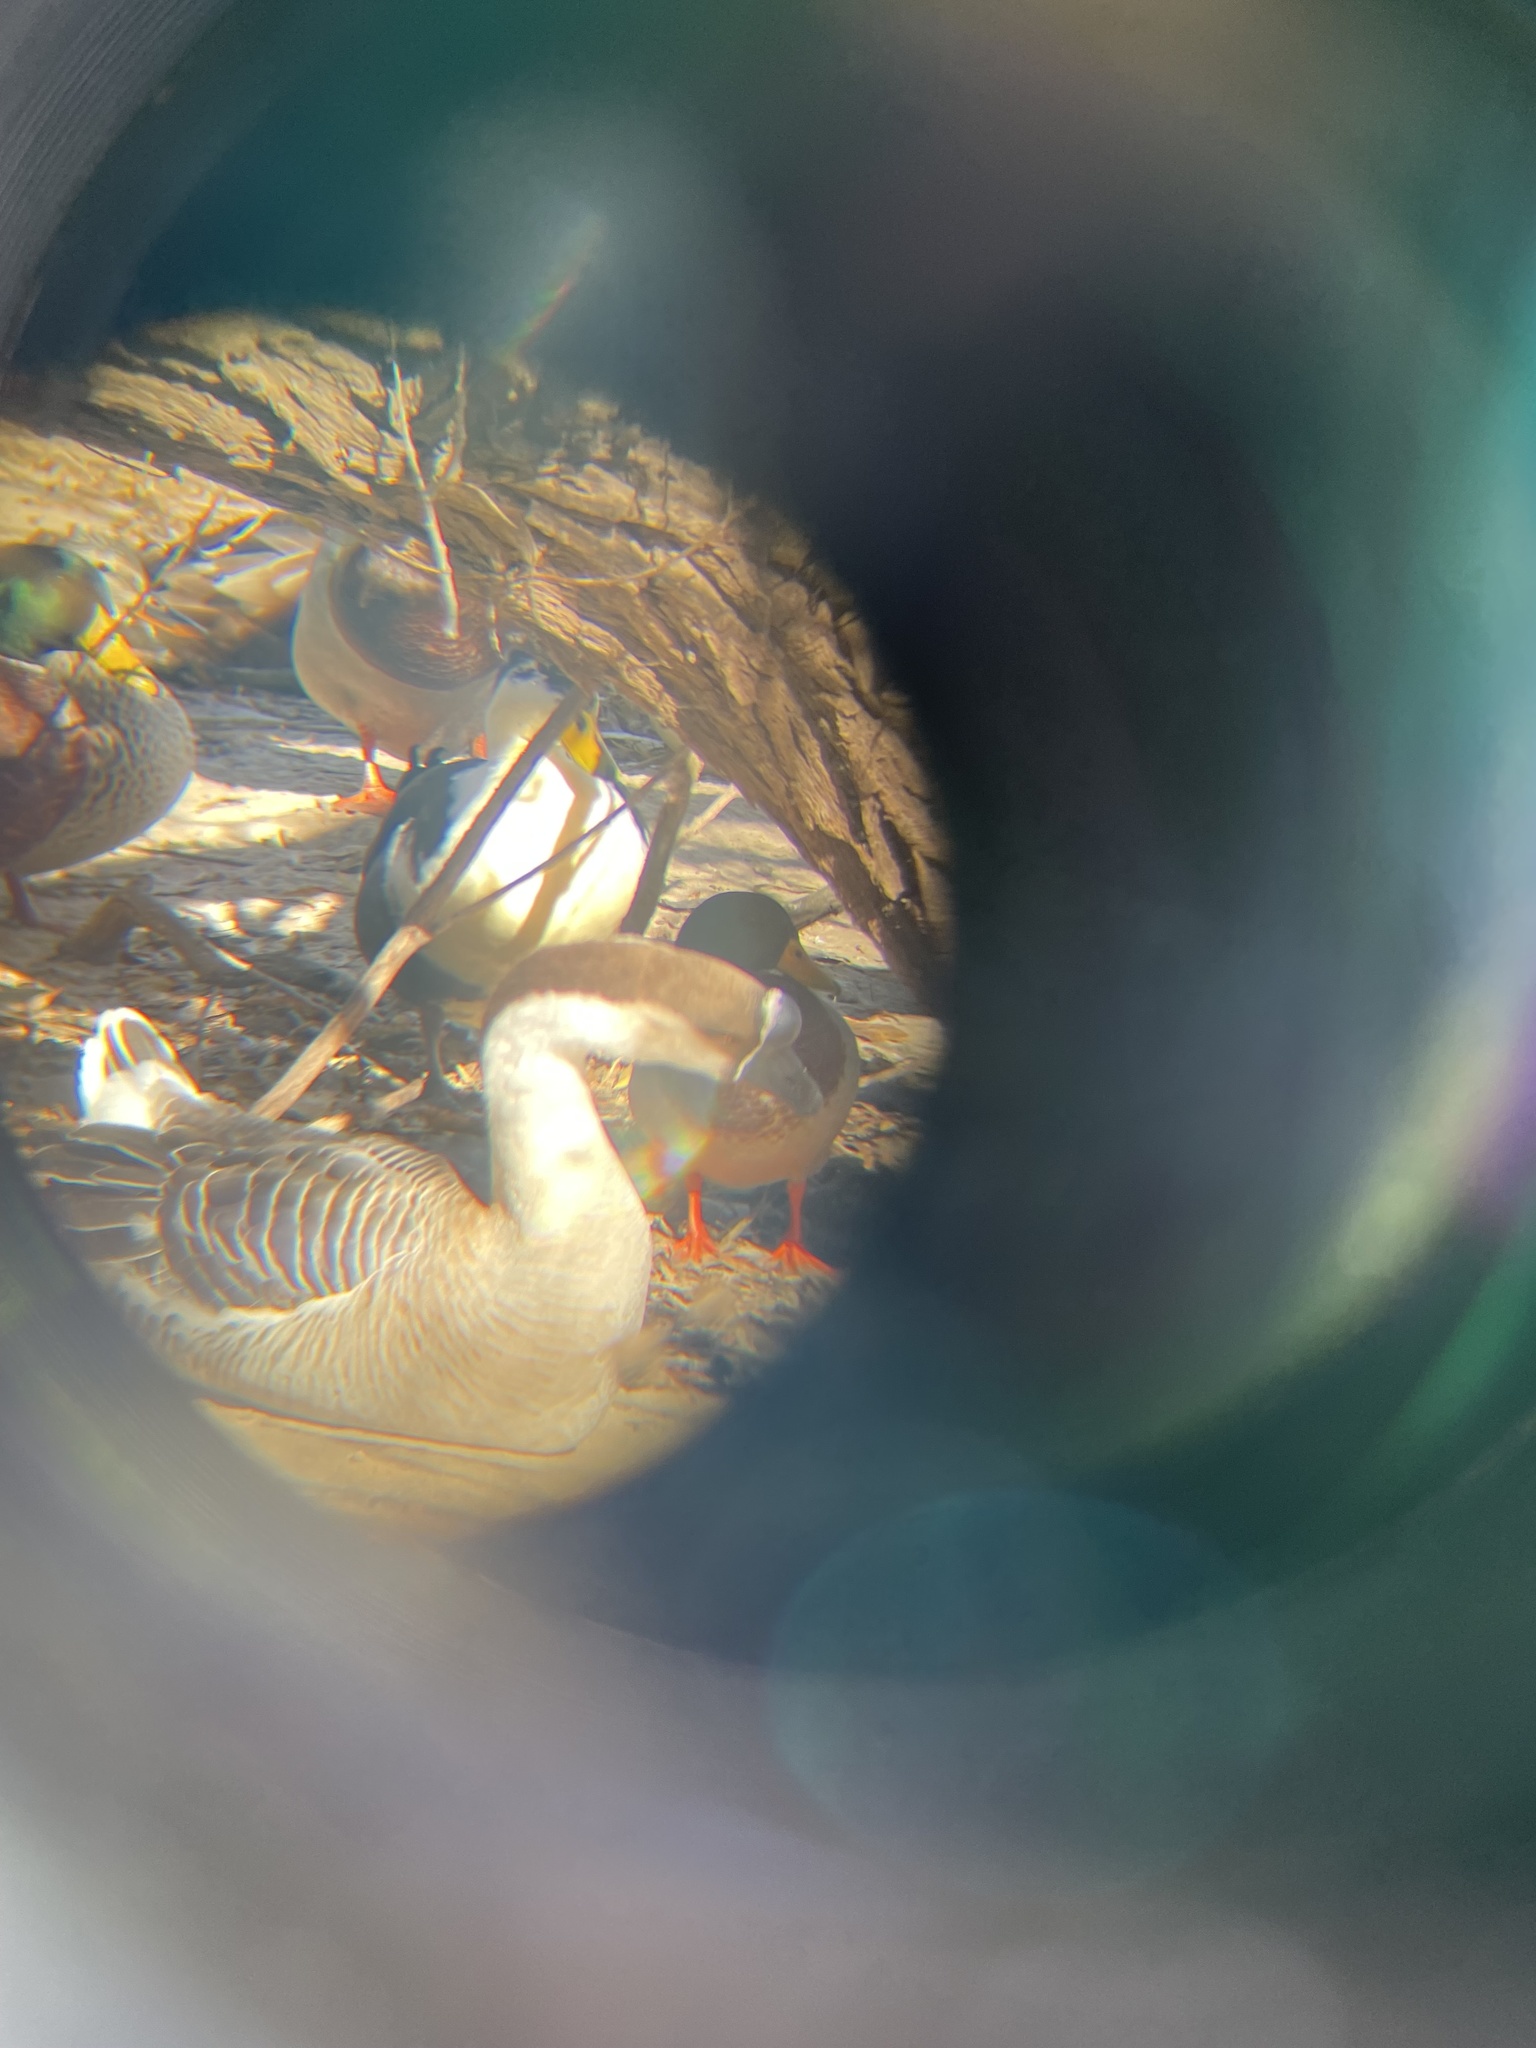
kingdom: Animalia
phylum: Chordata
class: Aves
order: Anseriformes
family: Anatidae
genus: Anser
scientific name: Anser cygnoides
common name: Swan goose
